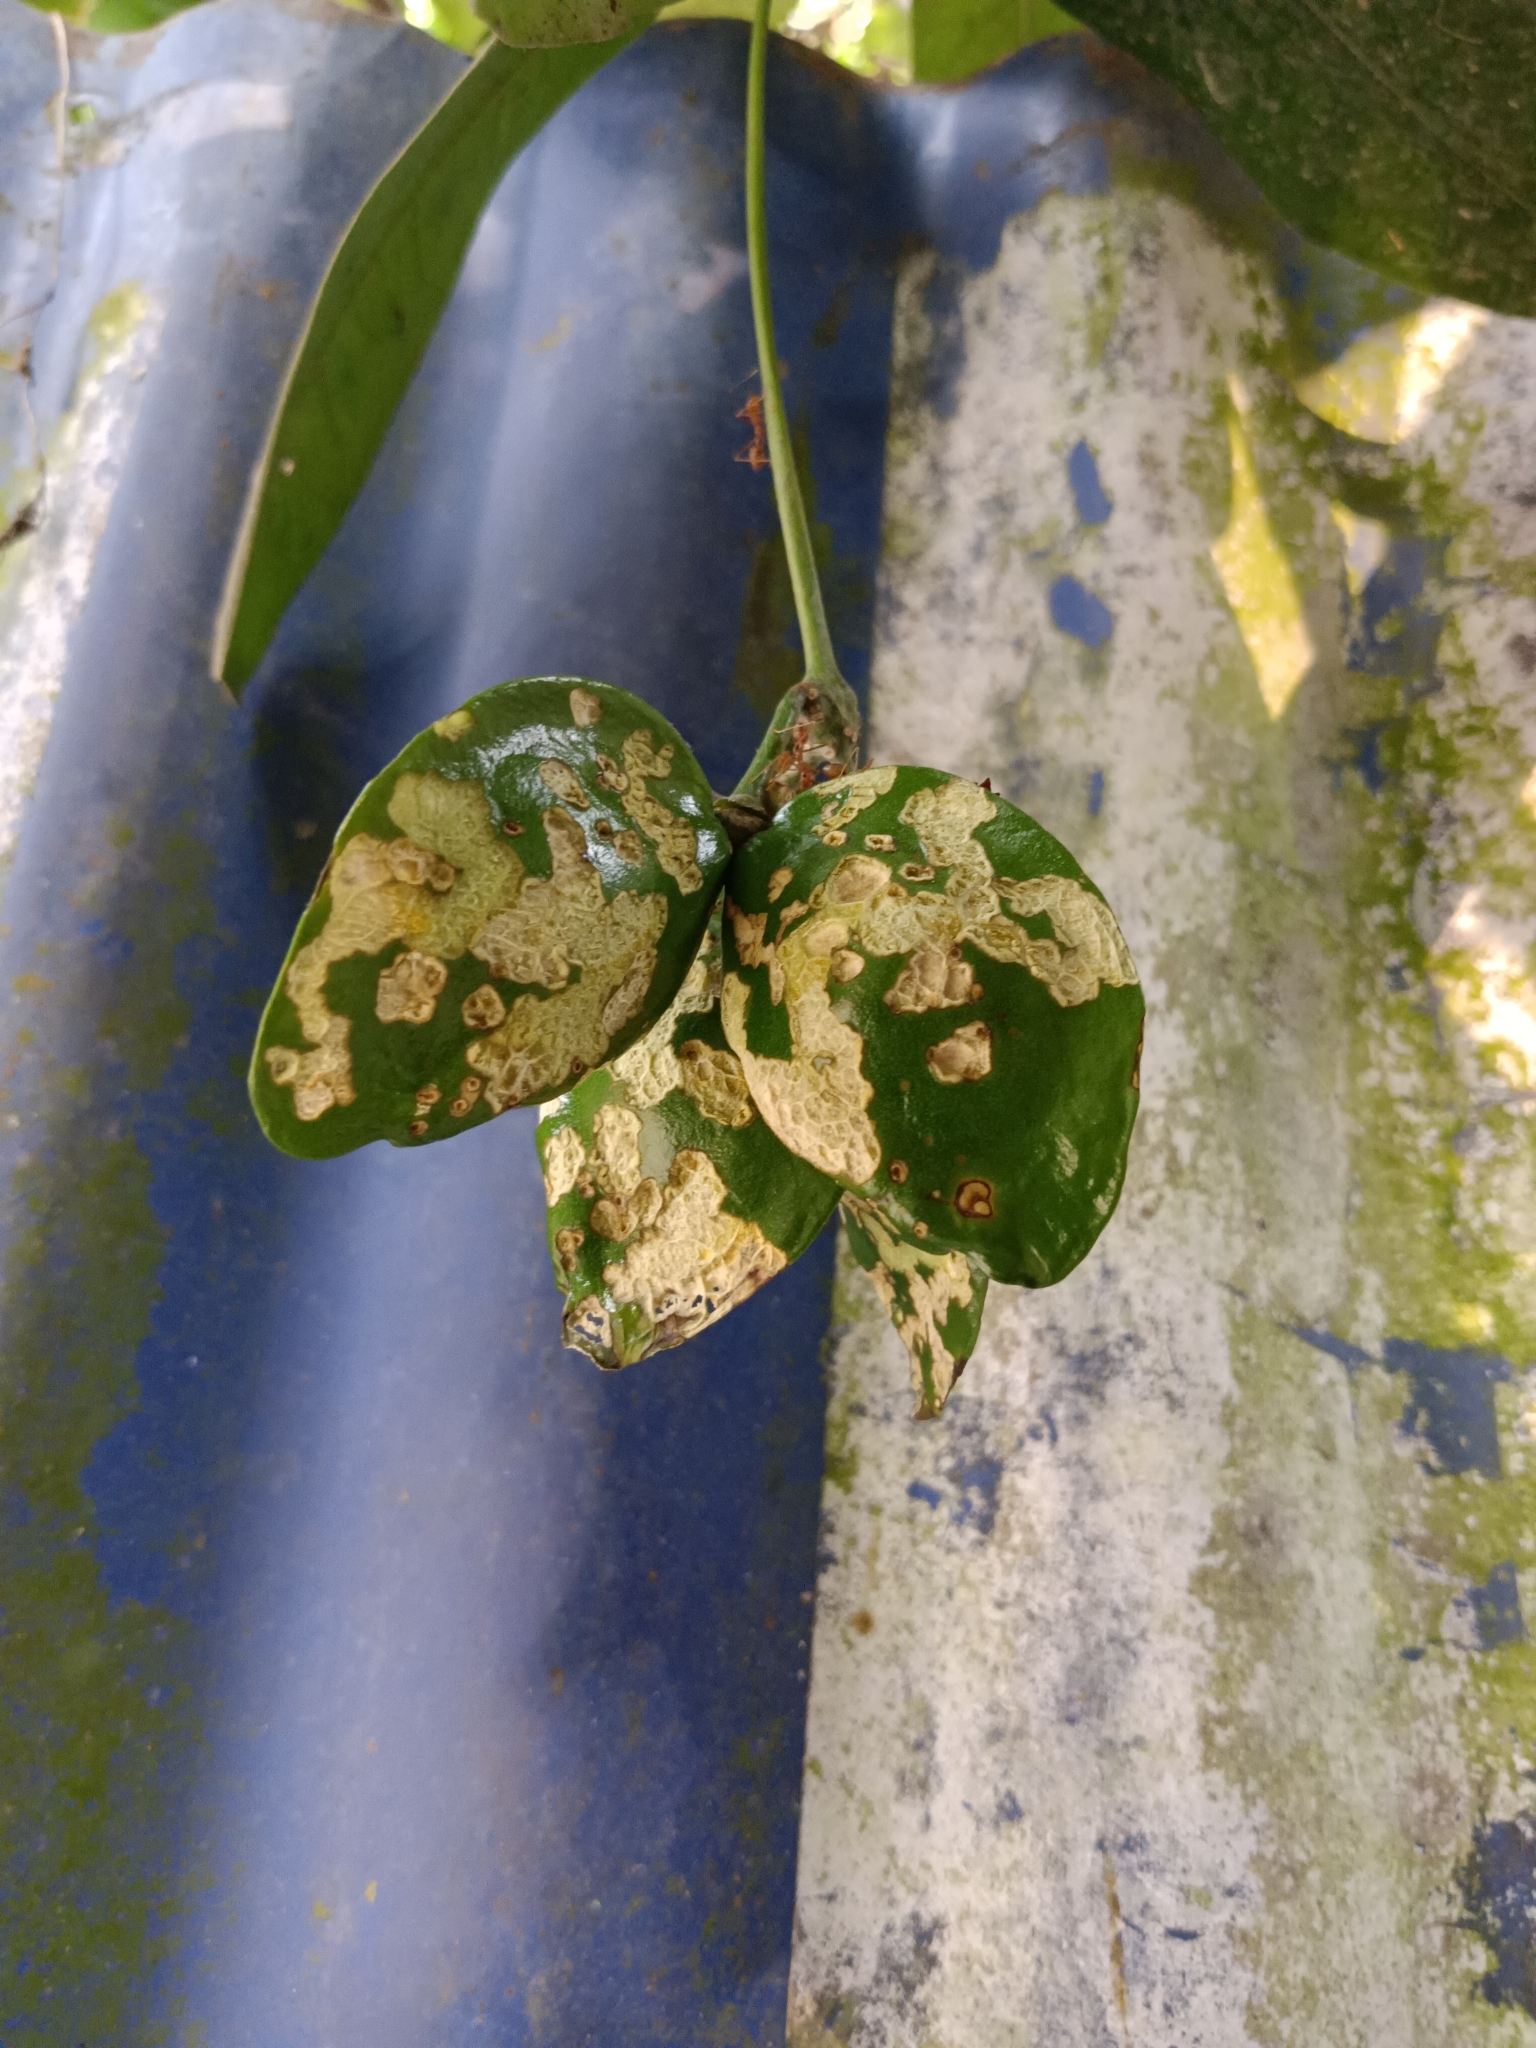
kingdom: Plantae
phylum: Tracheophyta
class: Magnoliopsida
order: Sapindales
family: Simaroubaceae
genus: Samadera
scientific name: Samadera indica
